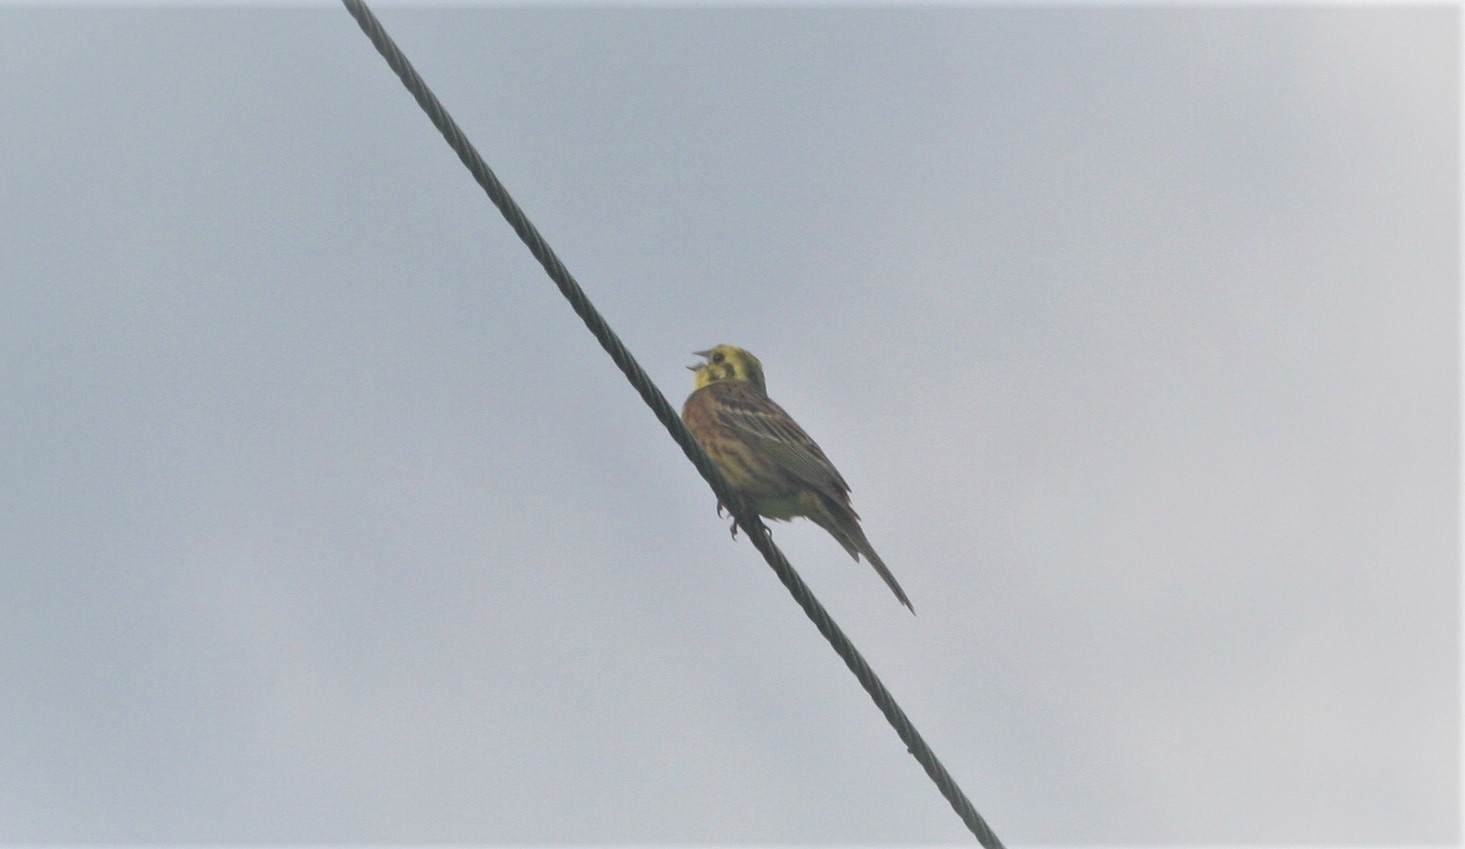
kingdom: Animalia
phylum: Chordata
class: Aves
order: Passeriformes
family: Emberizidae
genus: Emberiza
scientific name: Emberiza citrinella
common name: Yellowhammer
